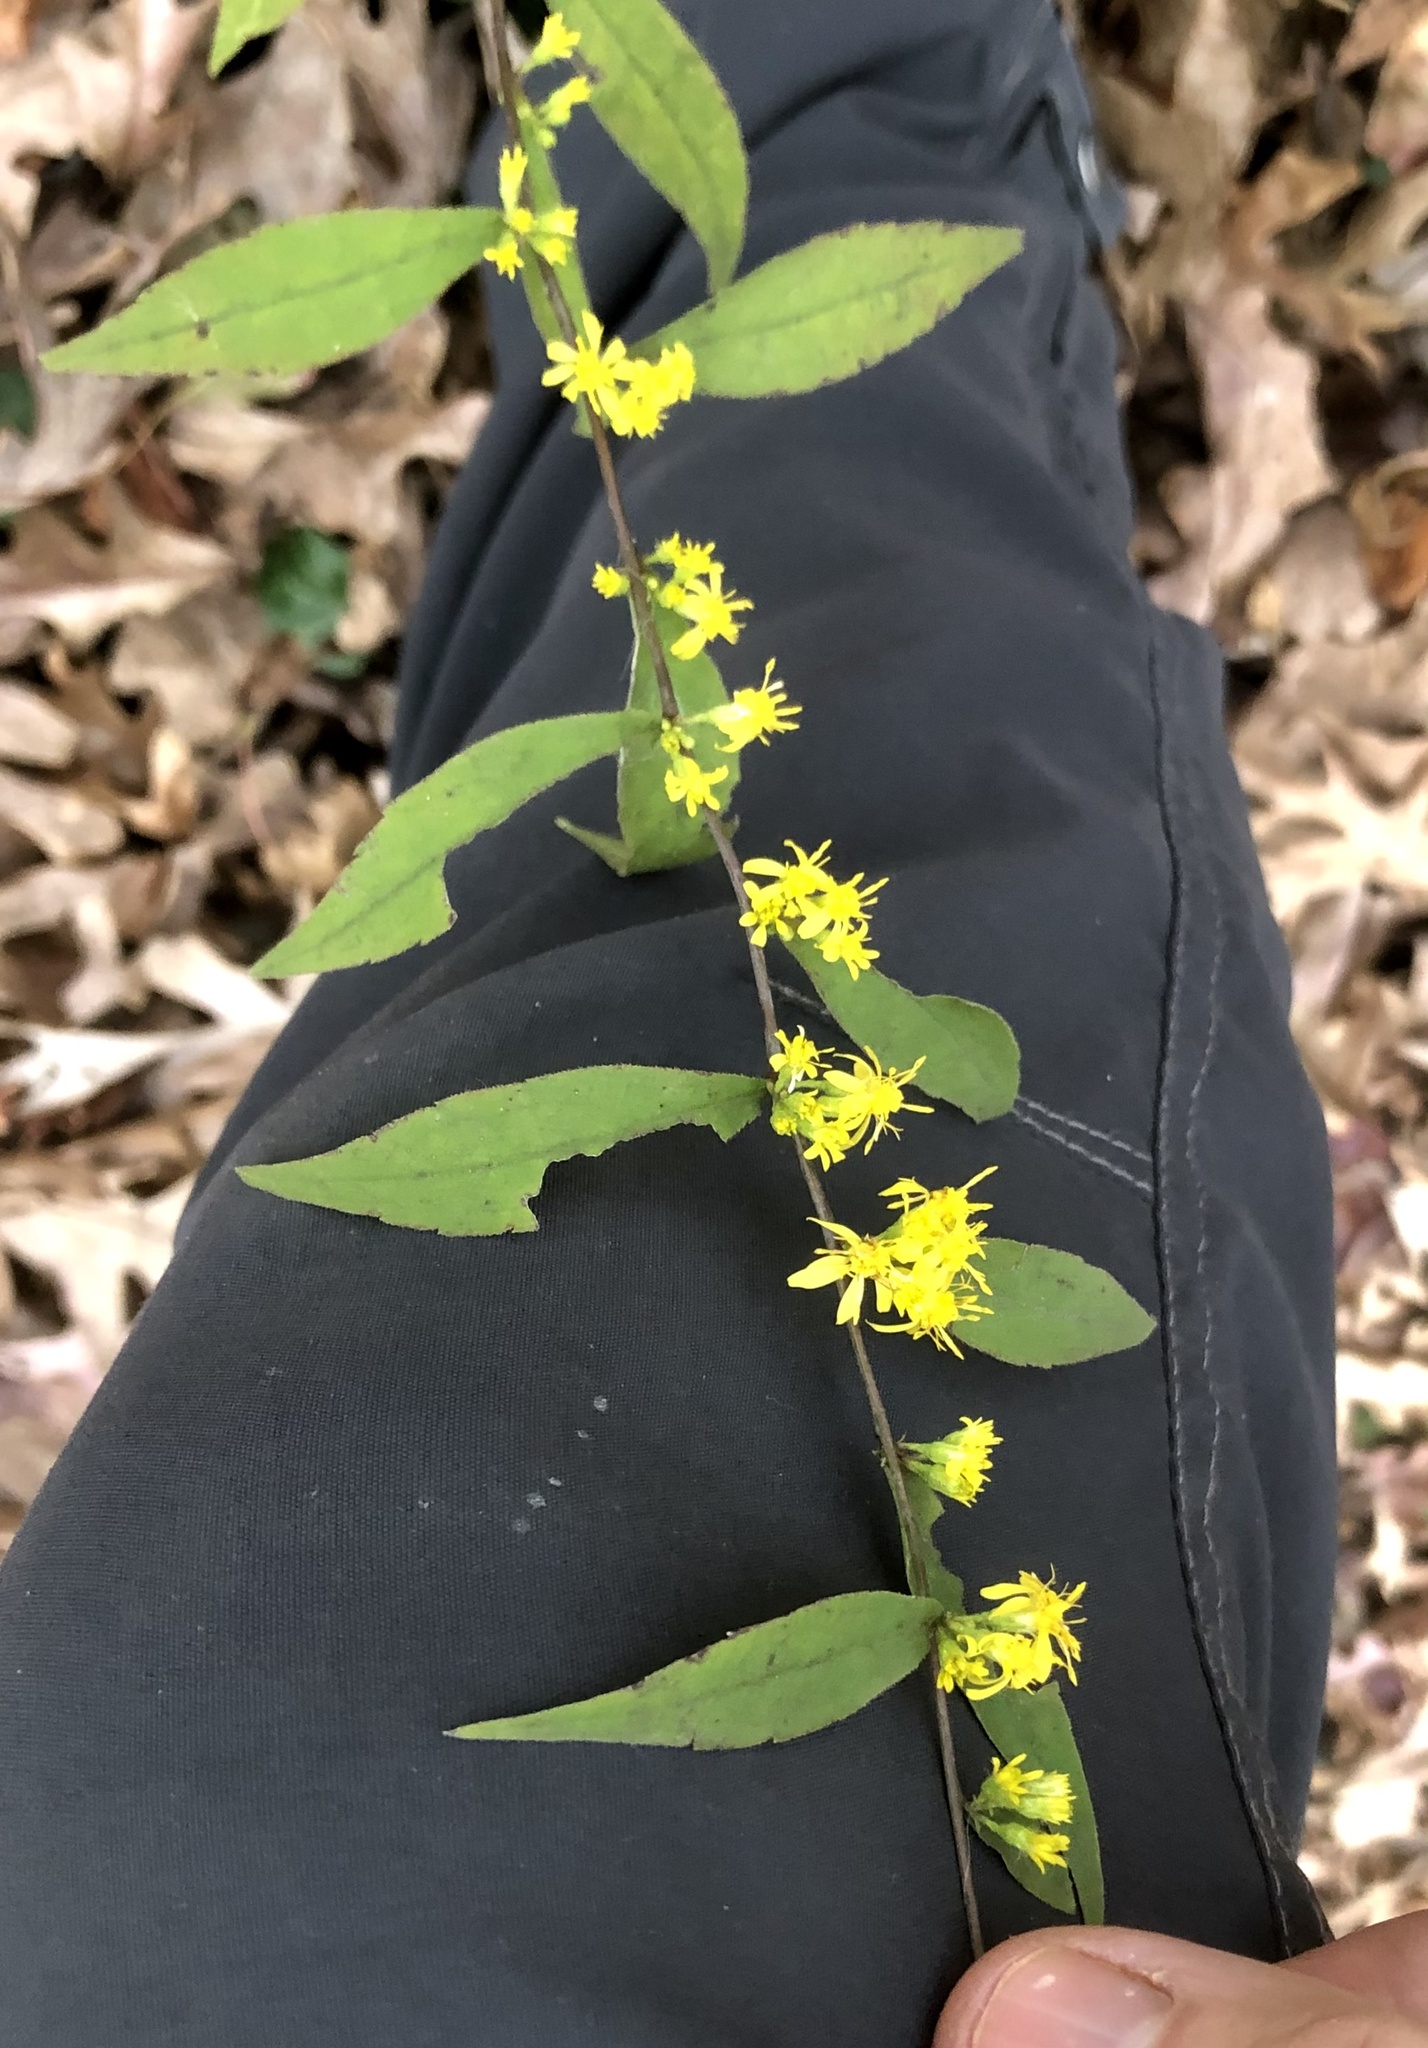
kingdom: Plantae
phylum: Tracheophyta
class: Magnoliopsida
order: Asterales
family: Asteraceae
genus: Solidago
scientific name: Solidago caesia
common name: Woodland goldenrod
